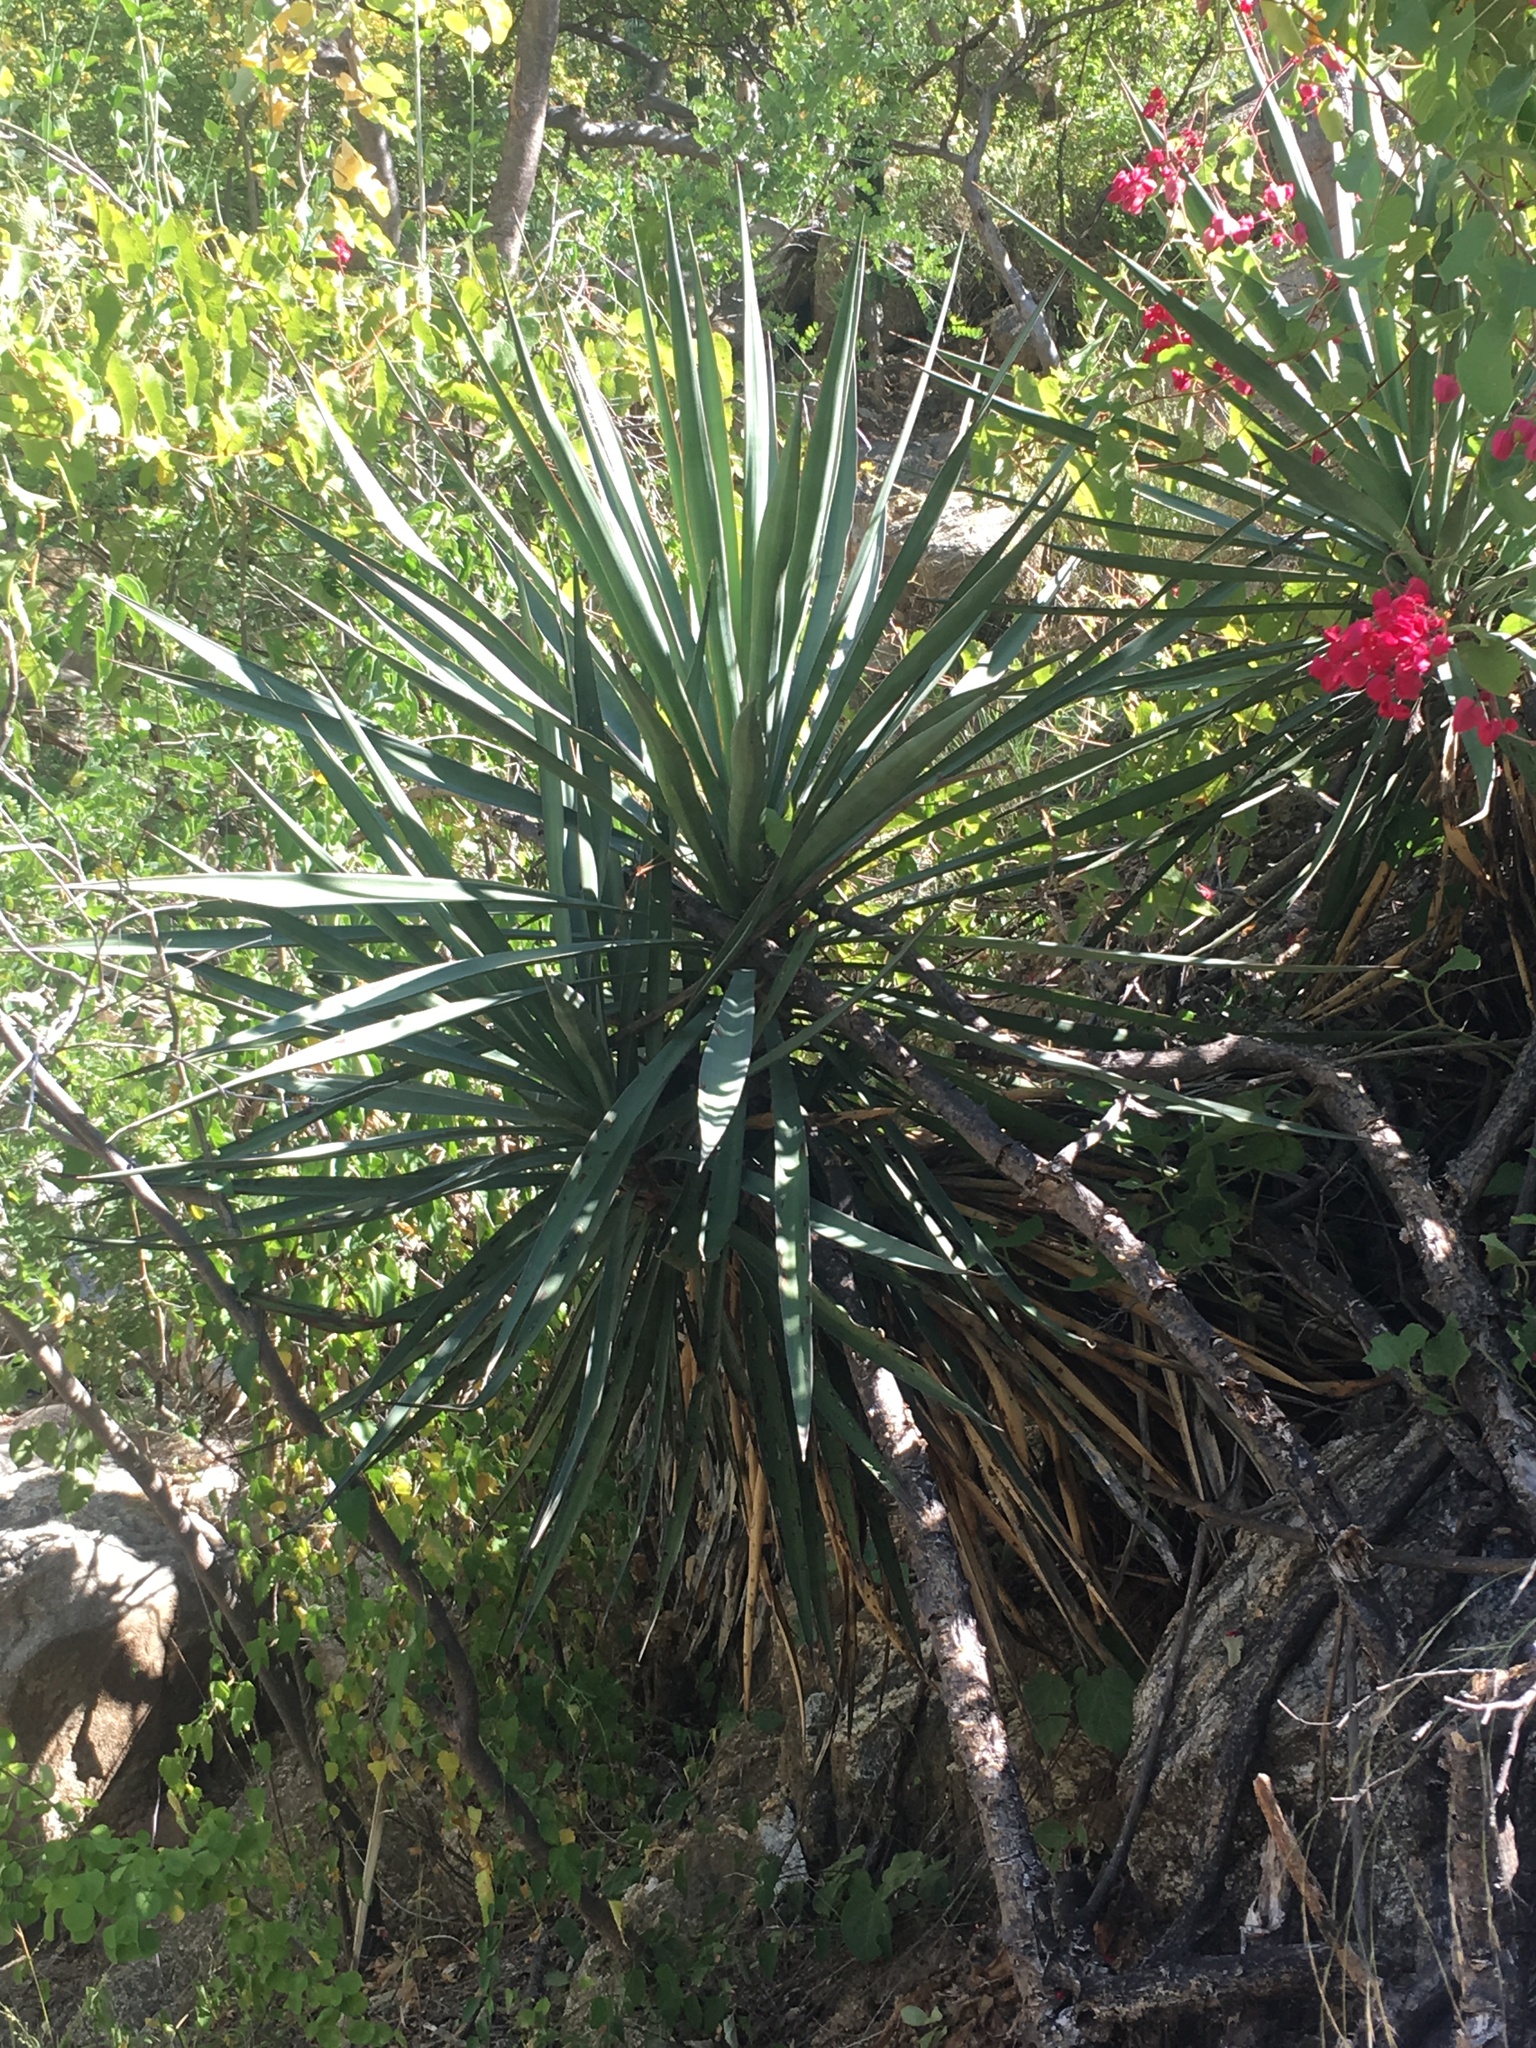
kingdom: Plantae
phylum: Tracheophyta
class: Liliopsida
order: Asparagales
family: Asparagaceae
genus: Yucca
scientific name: Yucca capensis
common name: Cape region yucca
